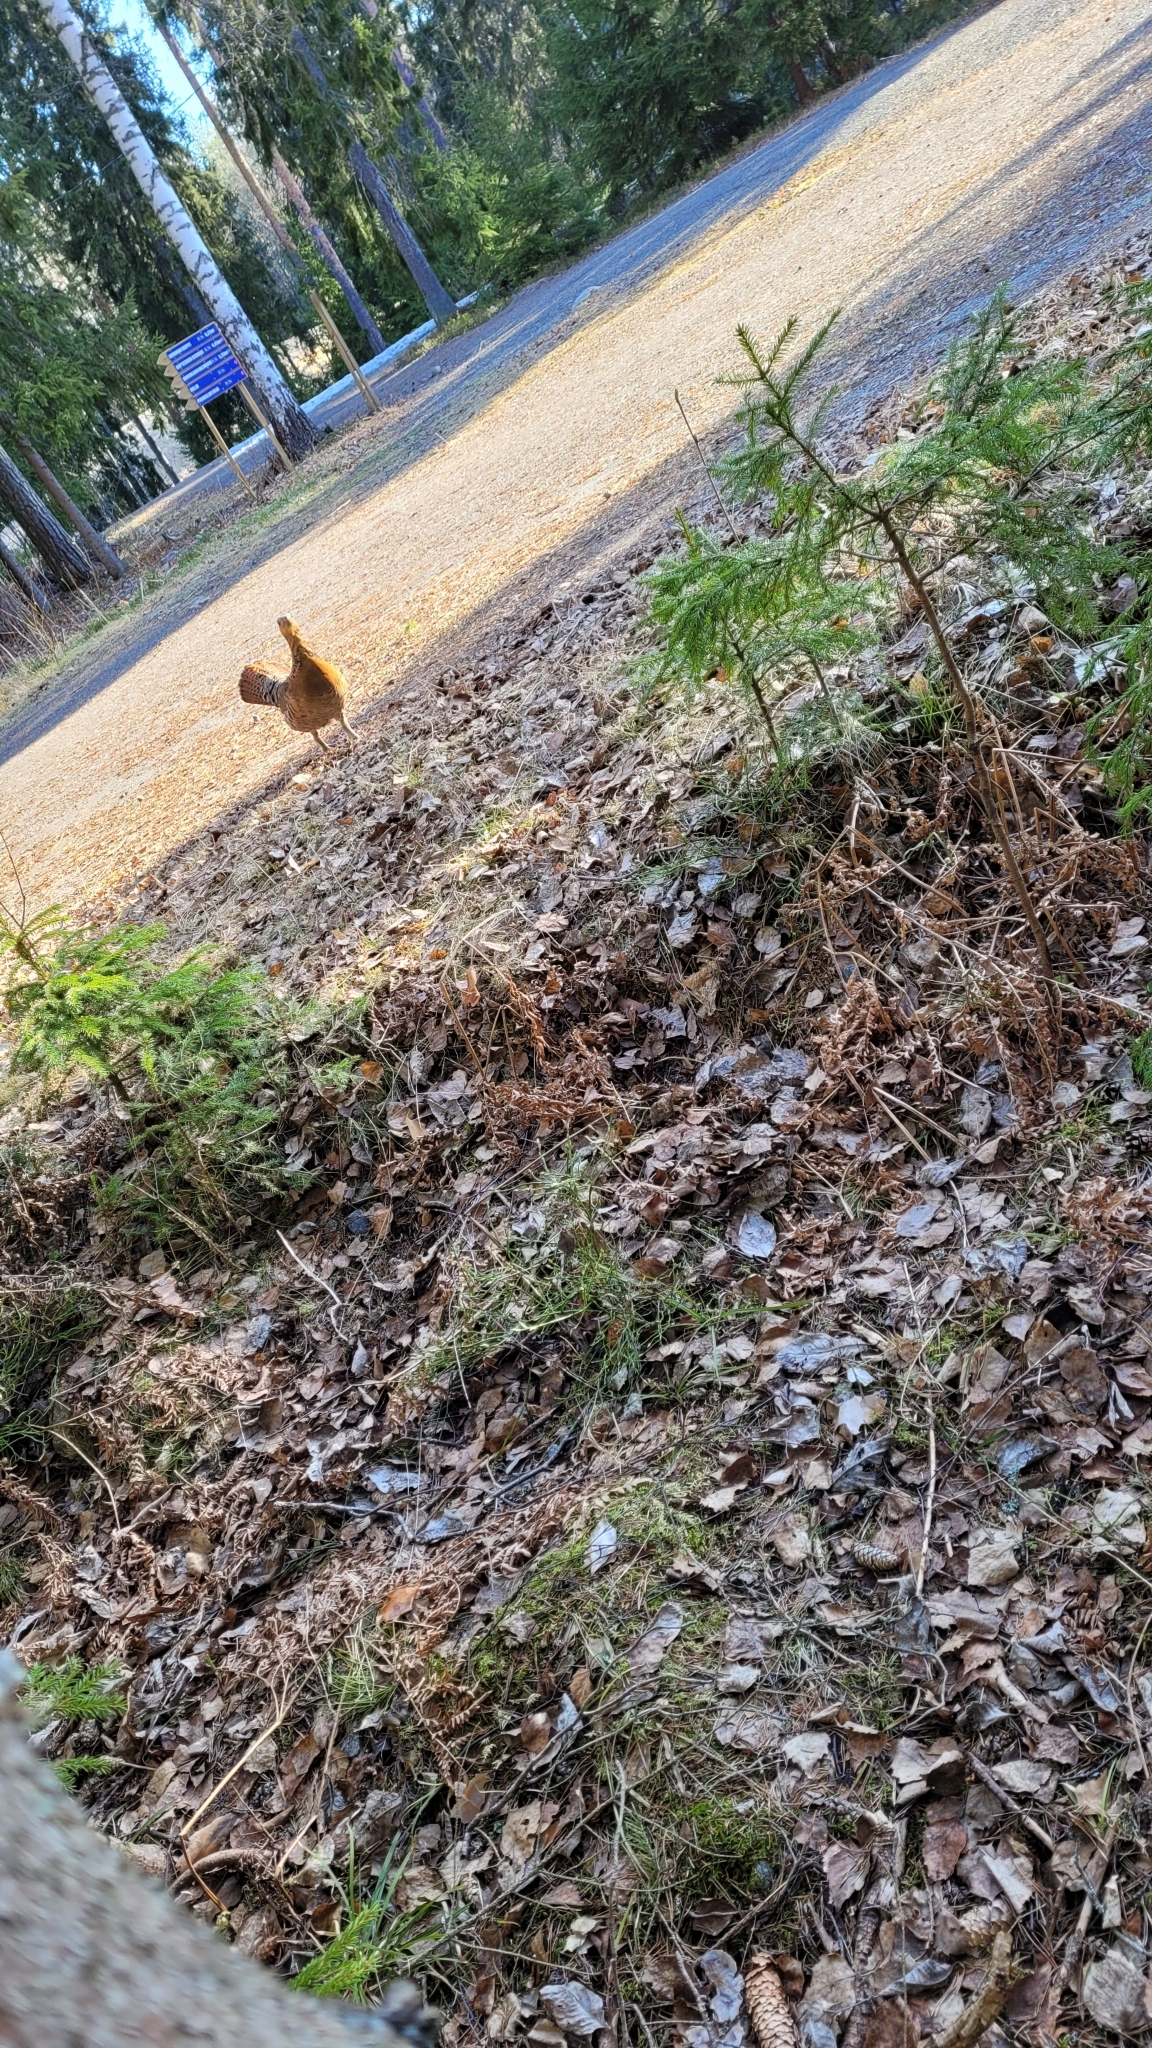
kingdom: Animalia
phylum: Chordata
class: Aves
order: Galliformes
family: Phasianidae
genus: Tetrao
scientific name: Tetrao urogallus
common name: Western capercaillie
